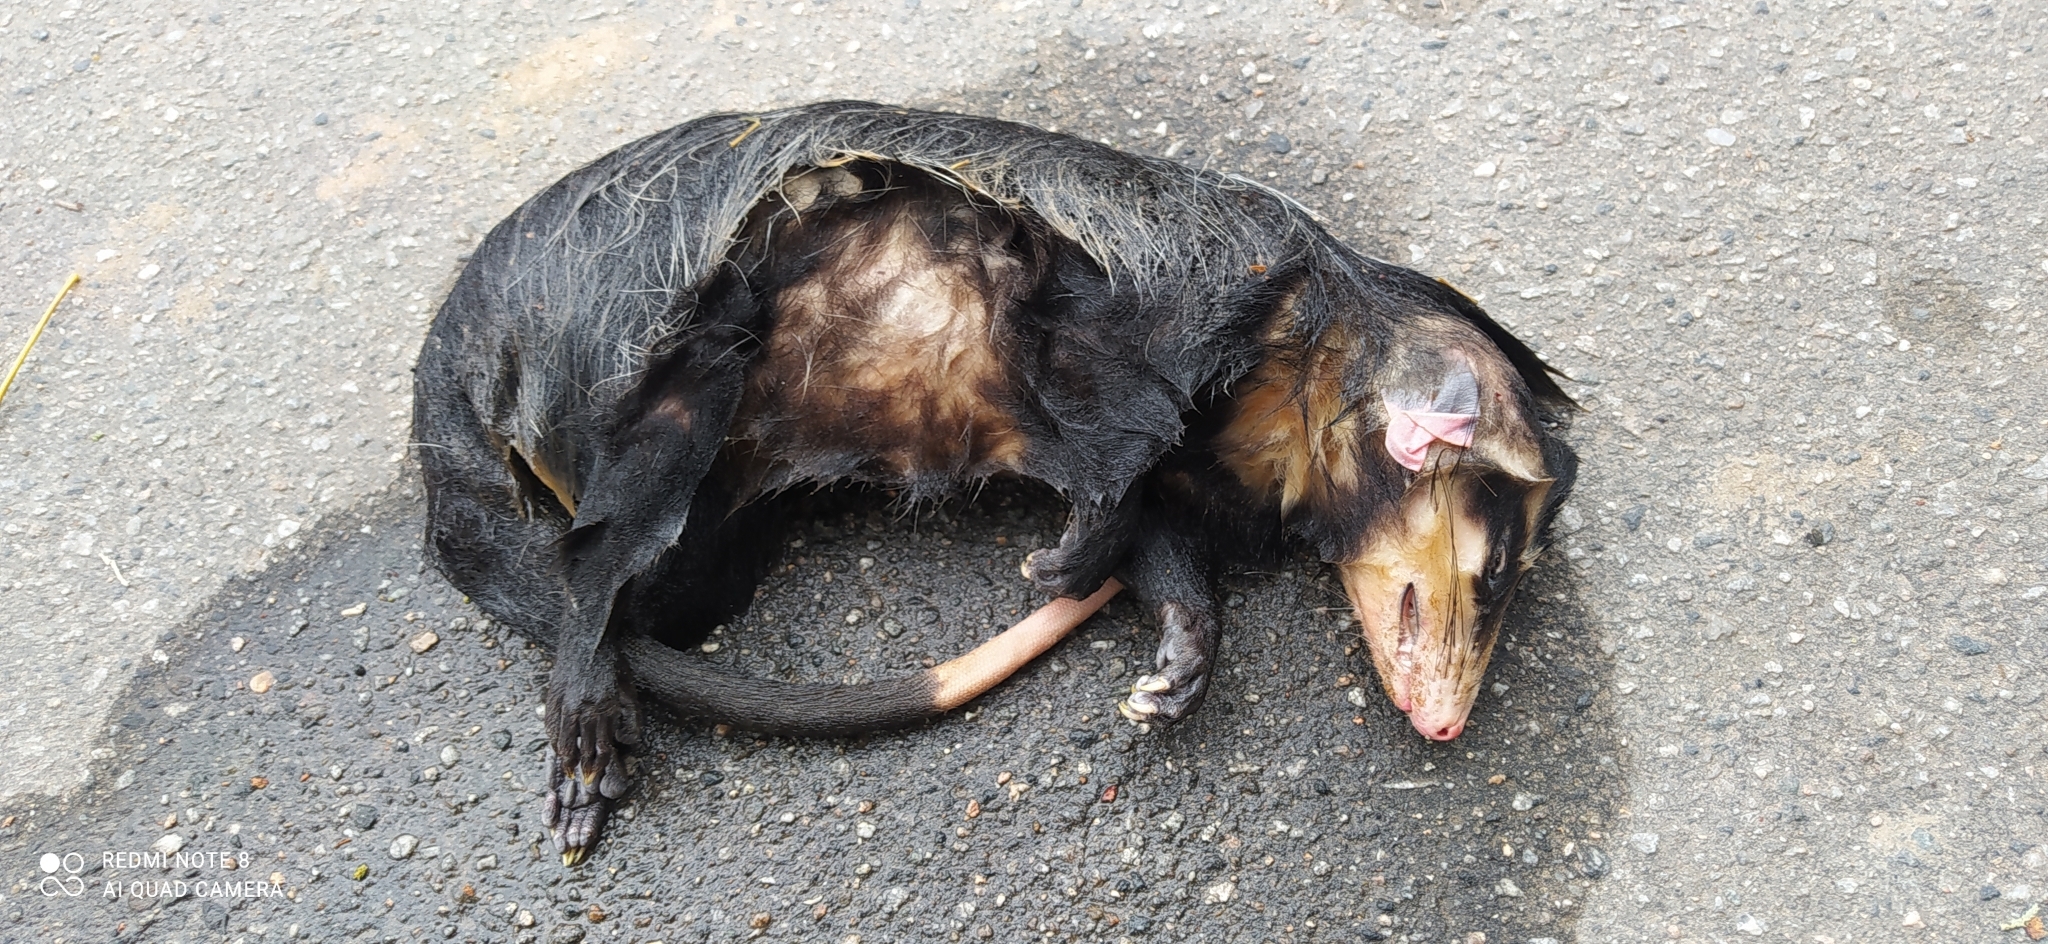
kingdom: Animalia
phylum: Chordata
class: Mammalia
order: Didelphimorphia
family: Didelphidae
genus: Didelphis
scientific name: Didelphis albiventris
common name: White-eared opossum
